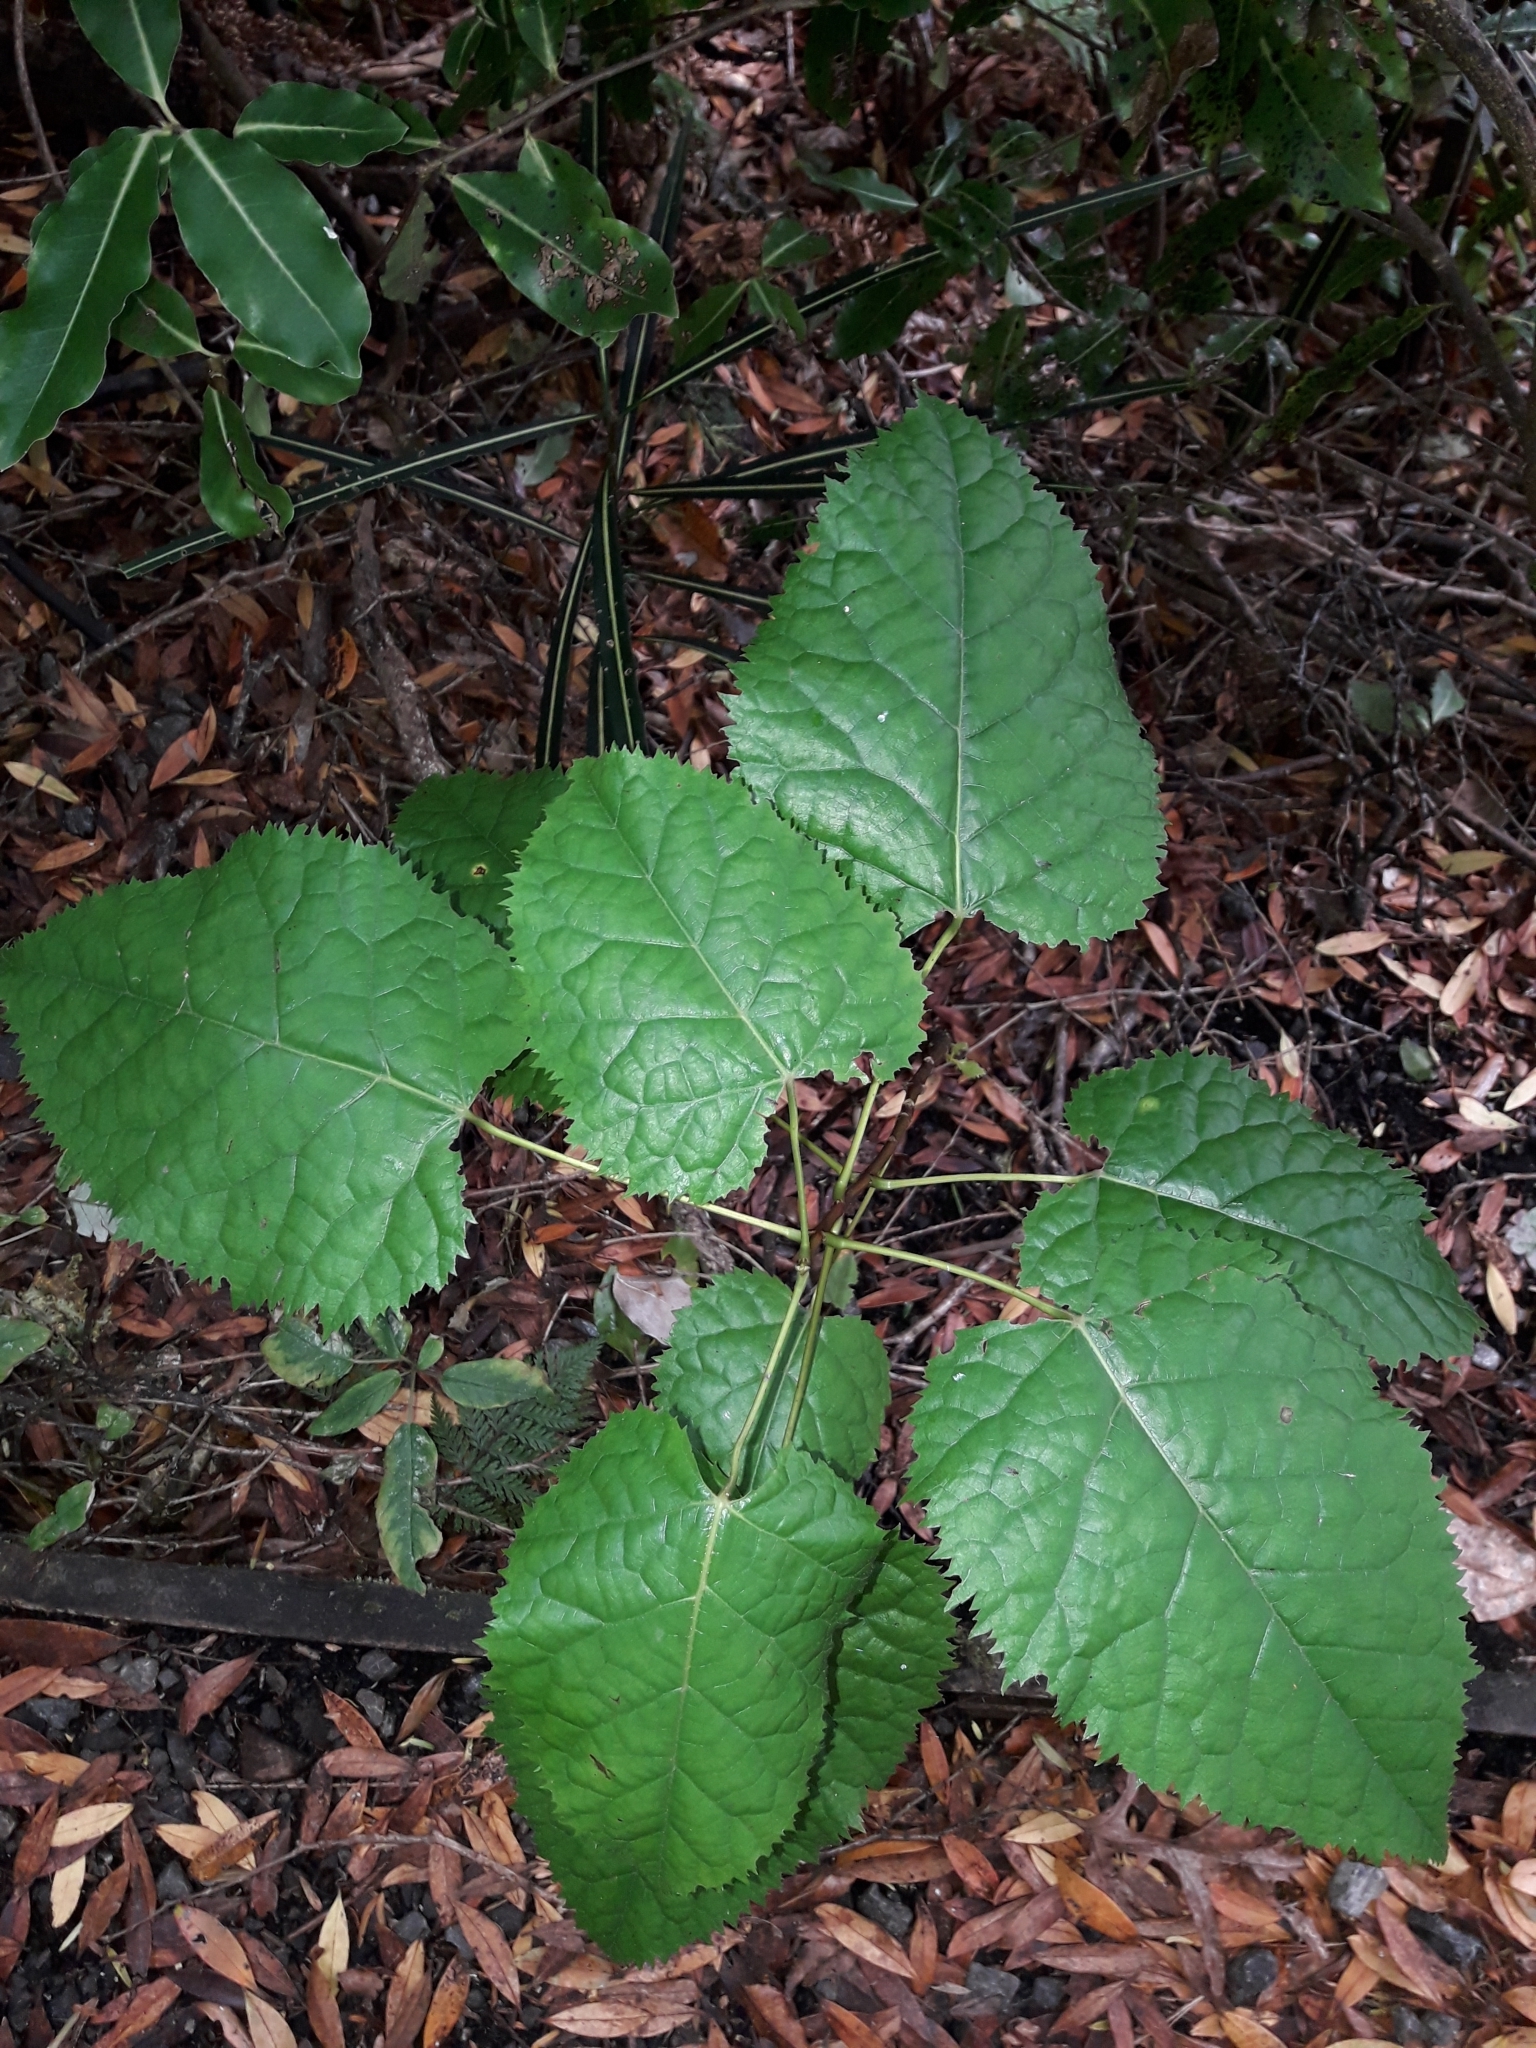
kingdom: Plantae
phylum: Tracheophyta
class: Magnoliopsida
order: Oxalidales
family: Elaeocarpaceae
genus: Aristotelia
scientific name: Aristotelia serrata
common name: New zealand wineberry
